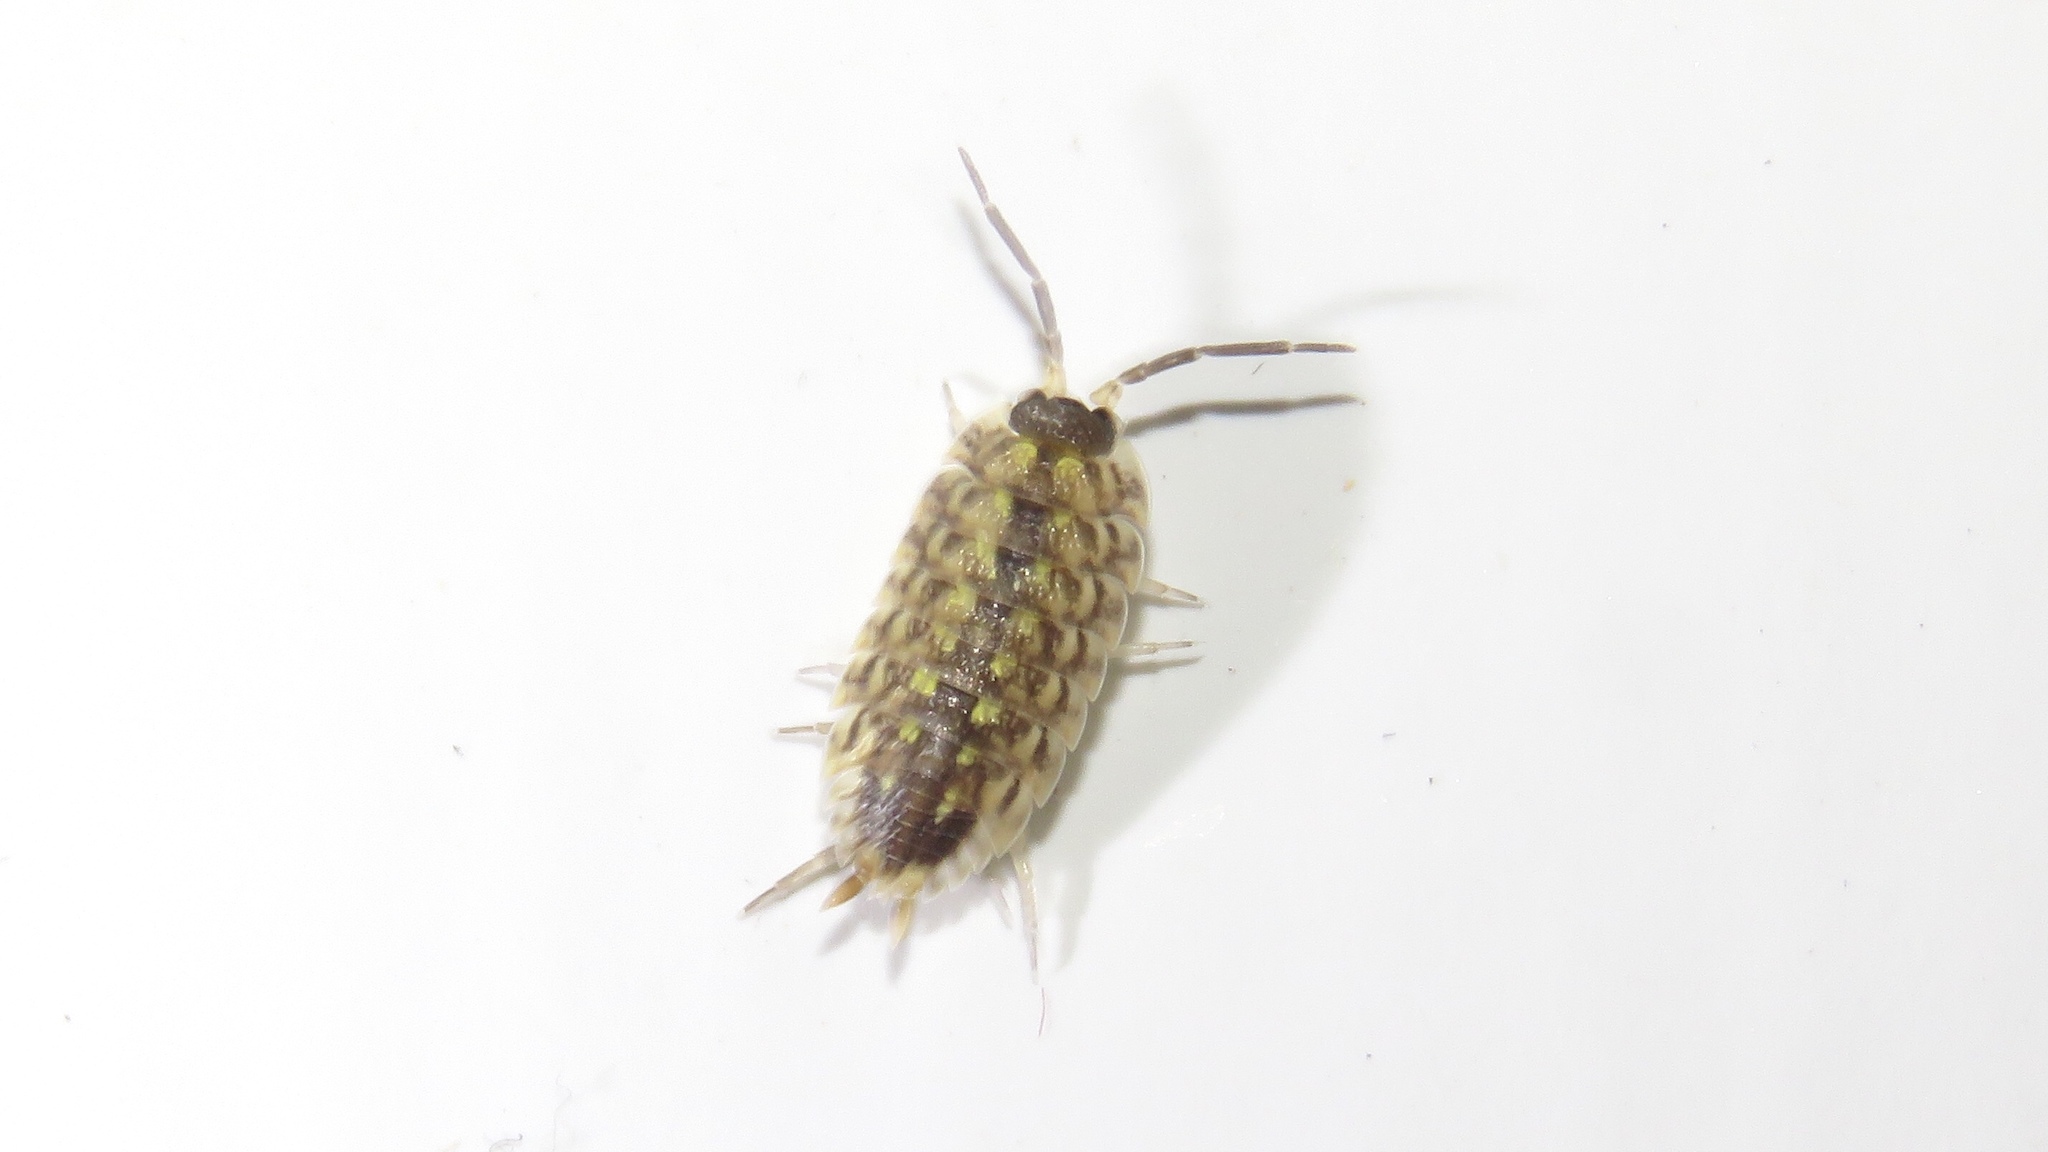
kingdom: Animalia
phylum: Arthropoda
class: Malacostraca
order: Isopoda
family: Porcellionidae
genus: Porcellio
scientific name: Porcellio spinicornis
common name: Painted woodlouse
